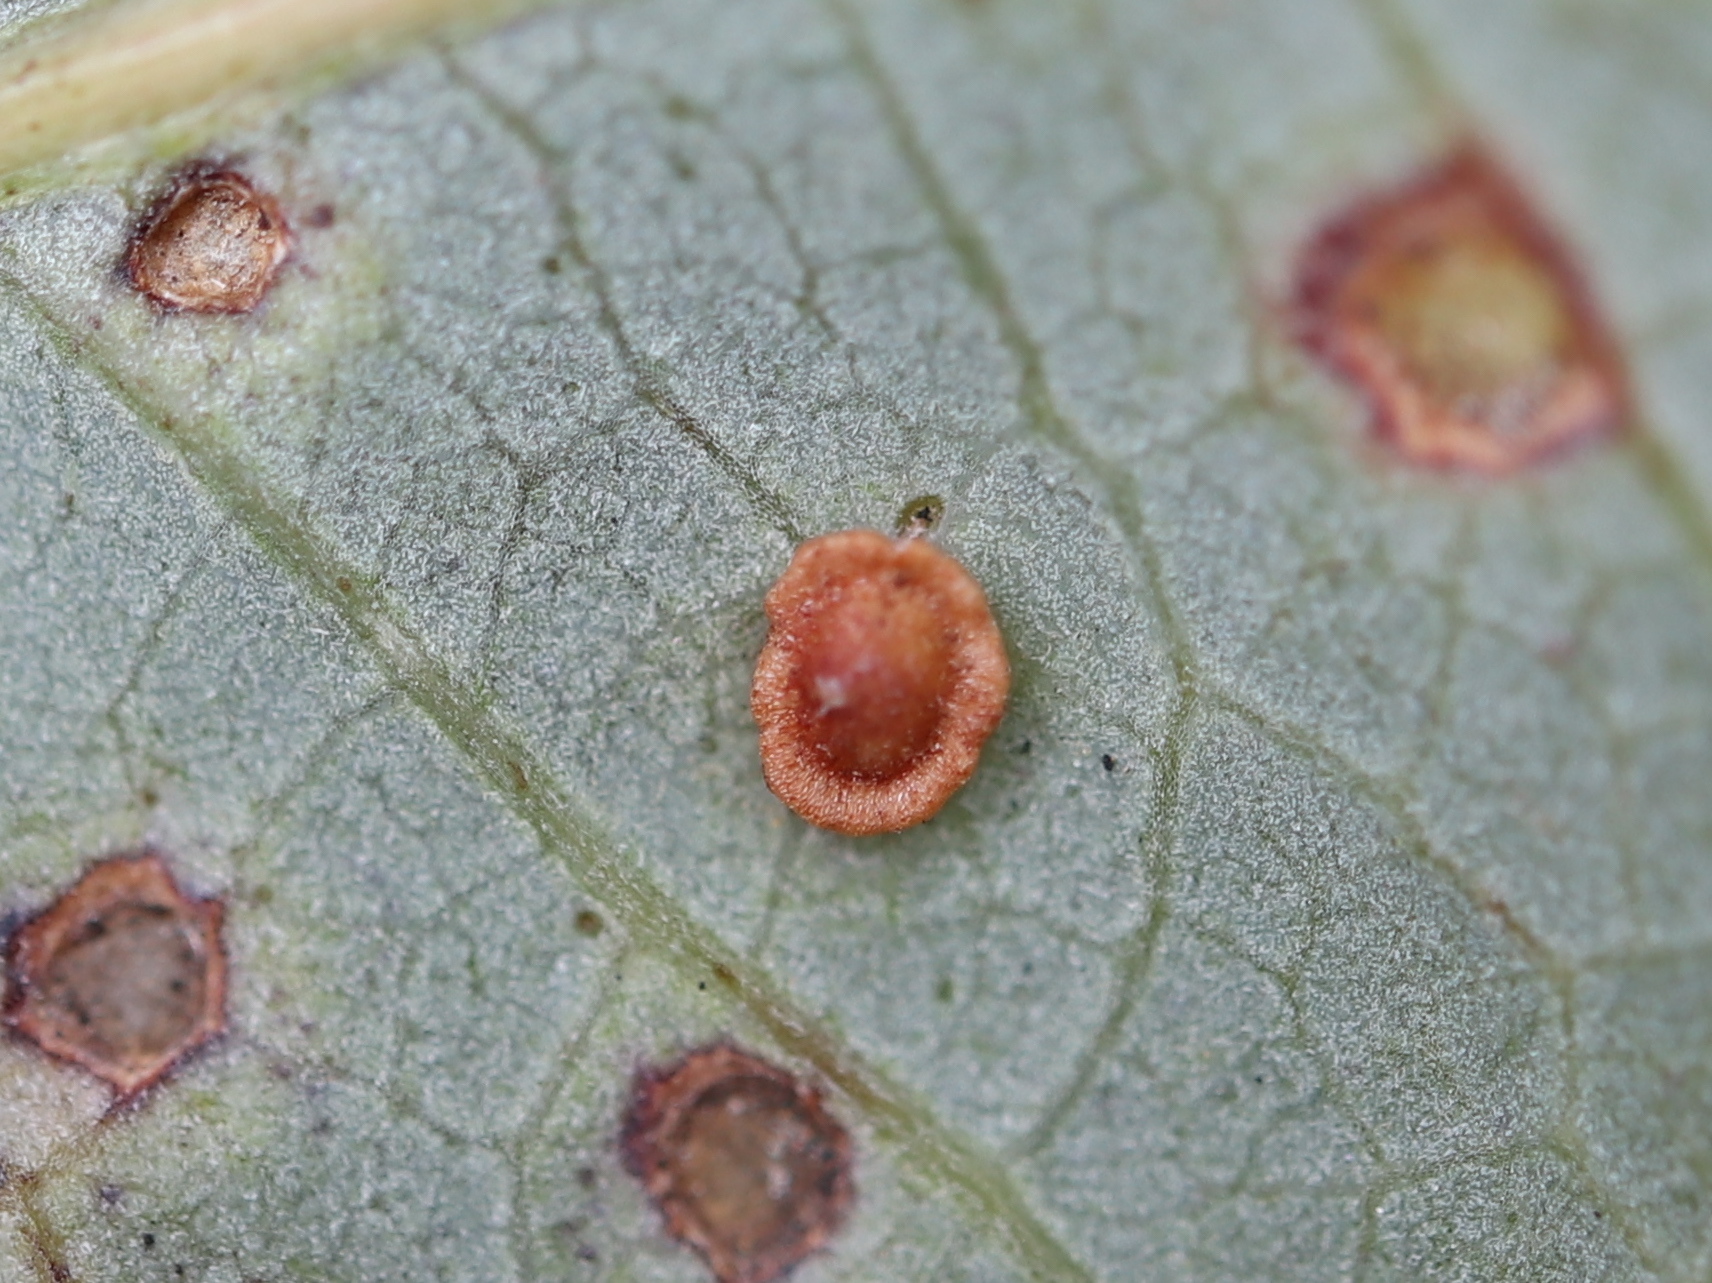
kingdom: Animalia
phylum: Arthropoda
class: Insecta
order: Hymenoptera
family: Cynipidae
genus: Neuroterus
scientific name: Neuroterus
